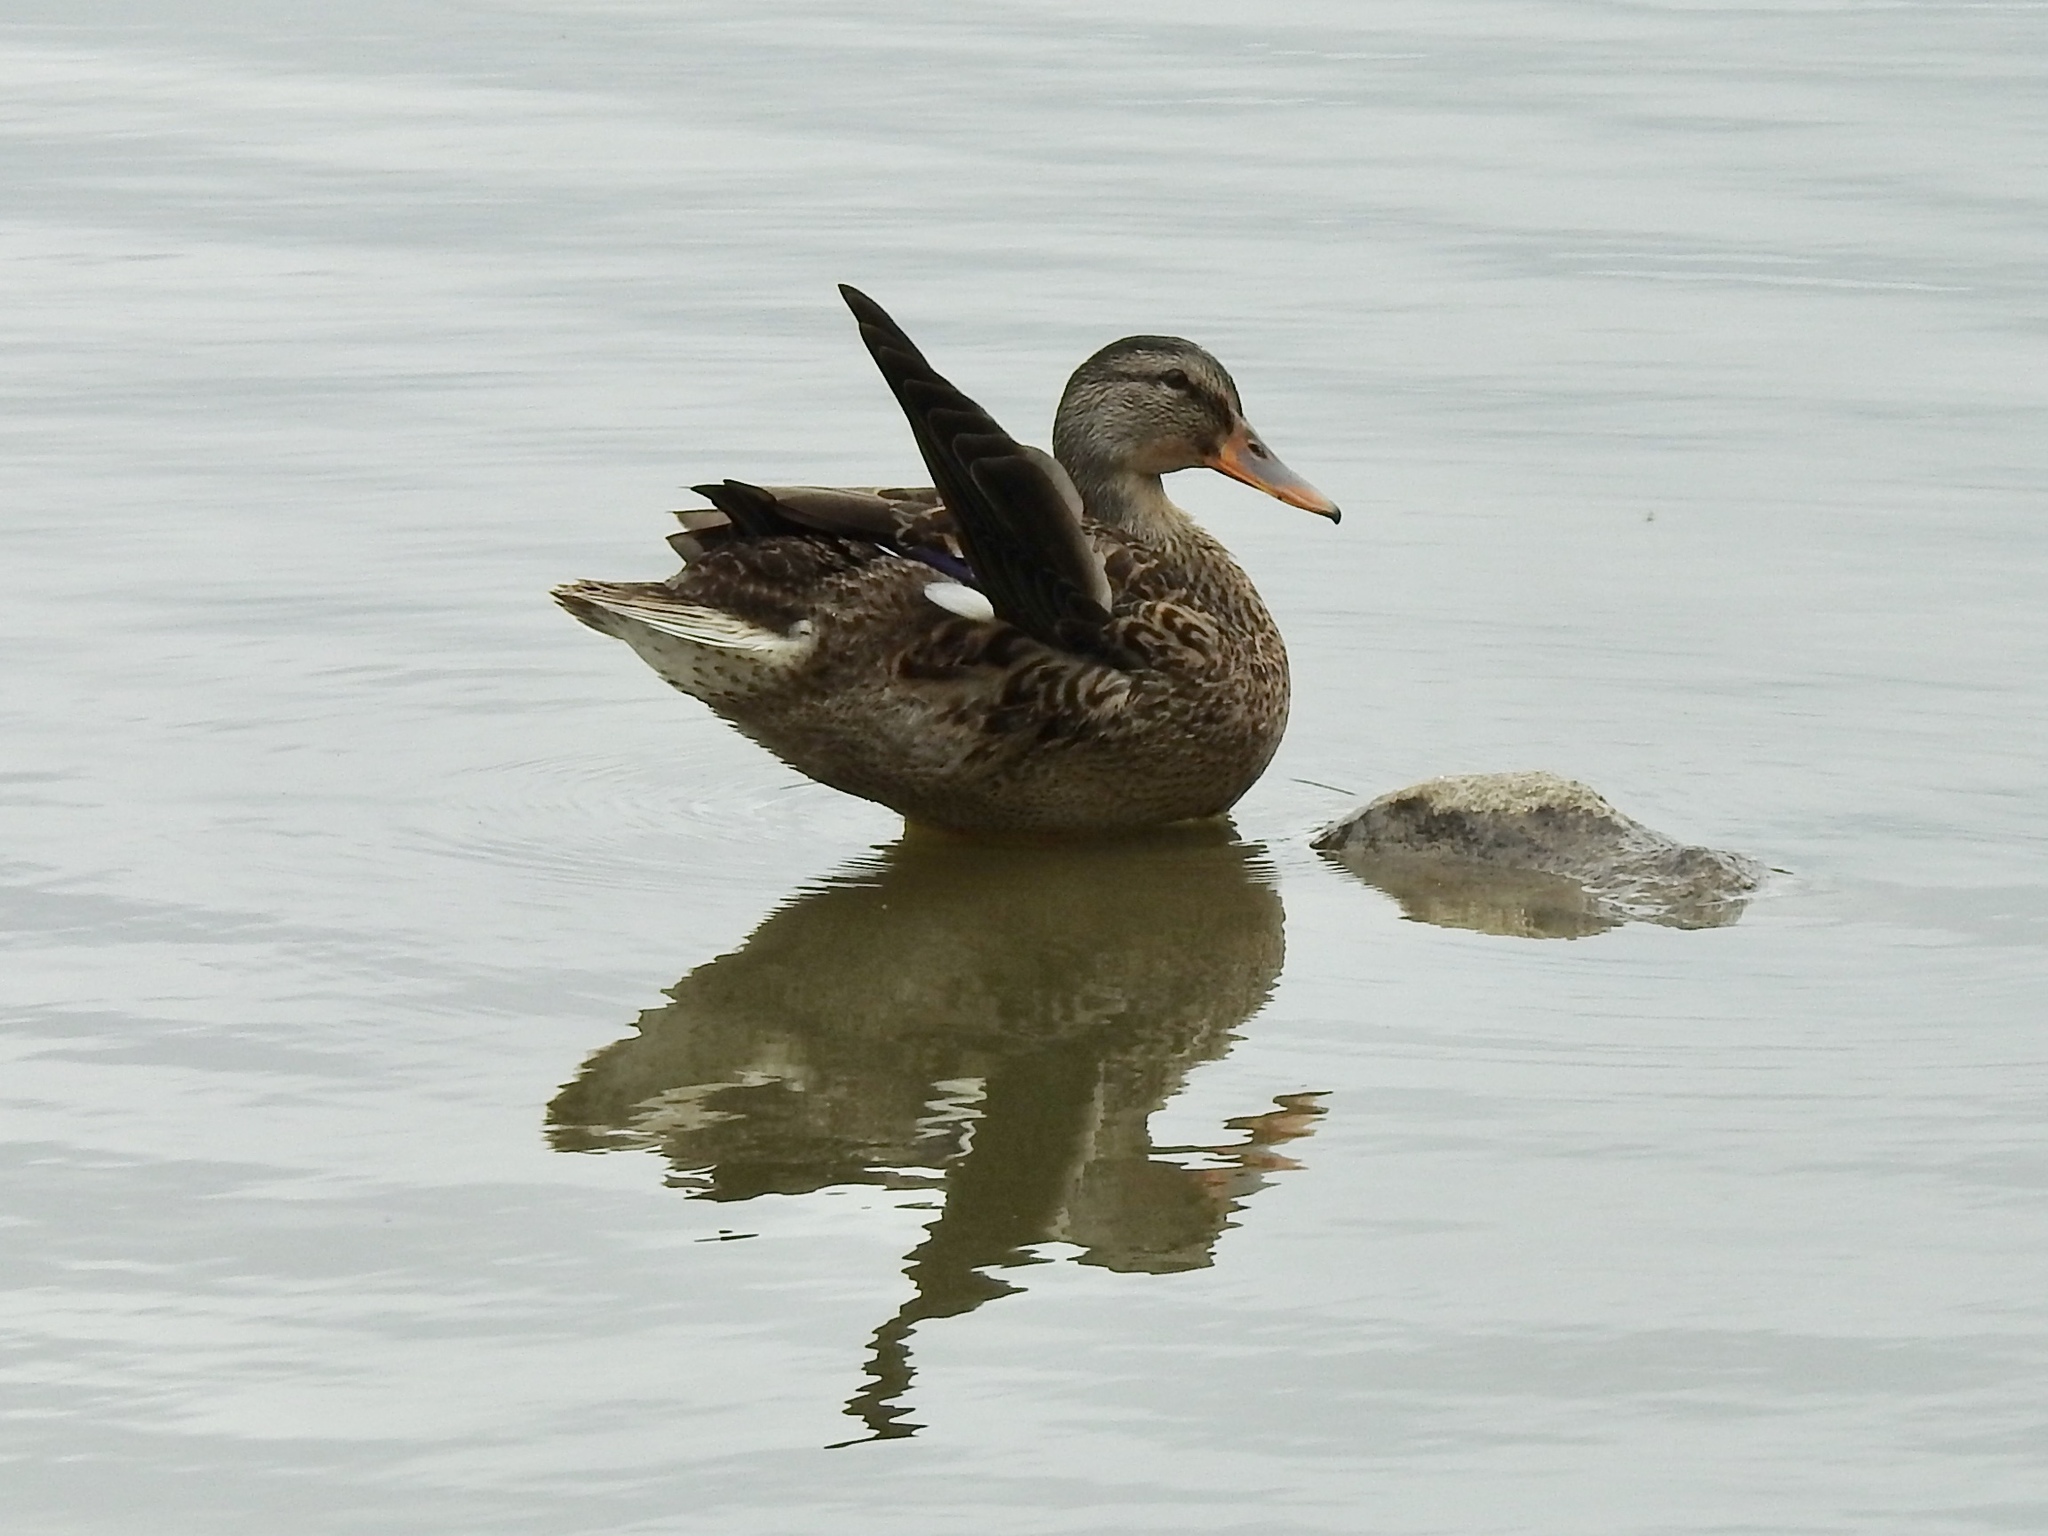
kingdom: Animalia
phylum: Chordata
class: Aves
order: Anseriformes
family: Anatidae
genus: Anas
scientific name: Anas platyrhynchos
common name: Mallard
